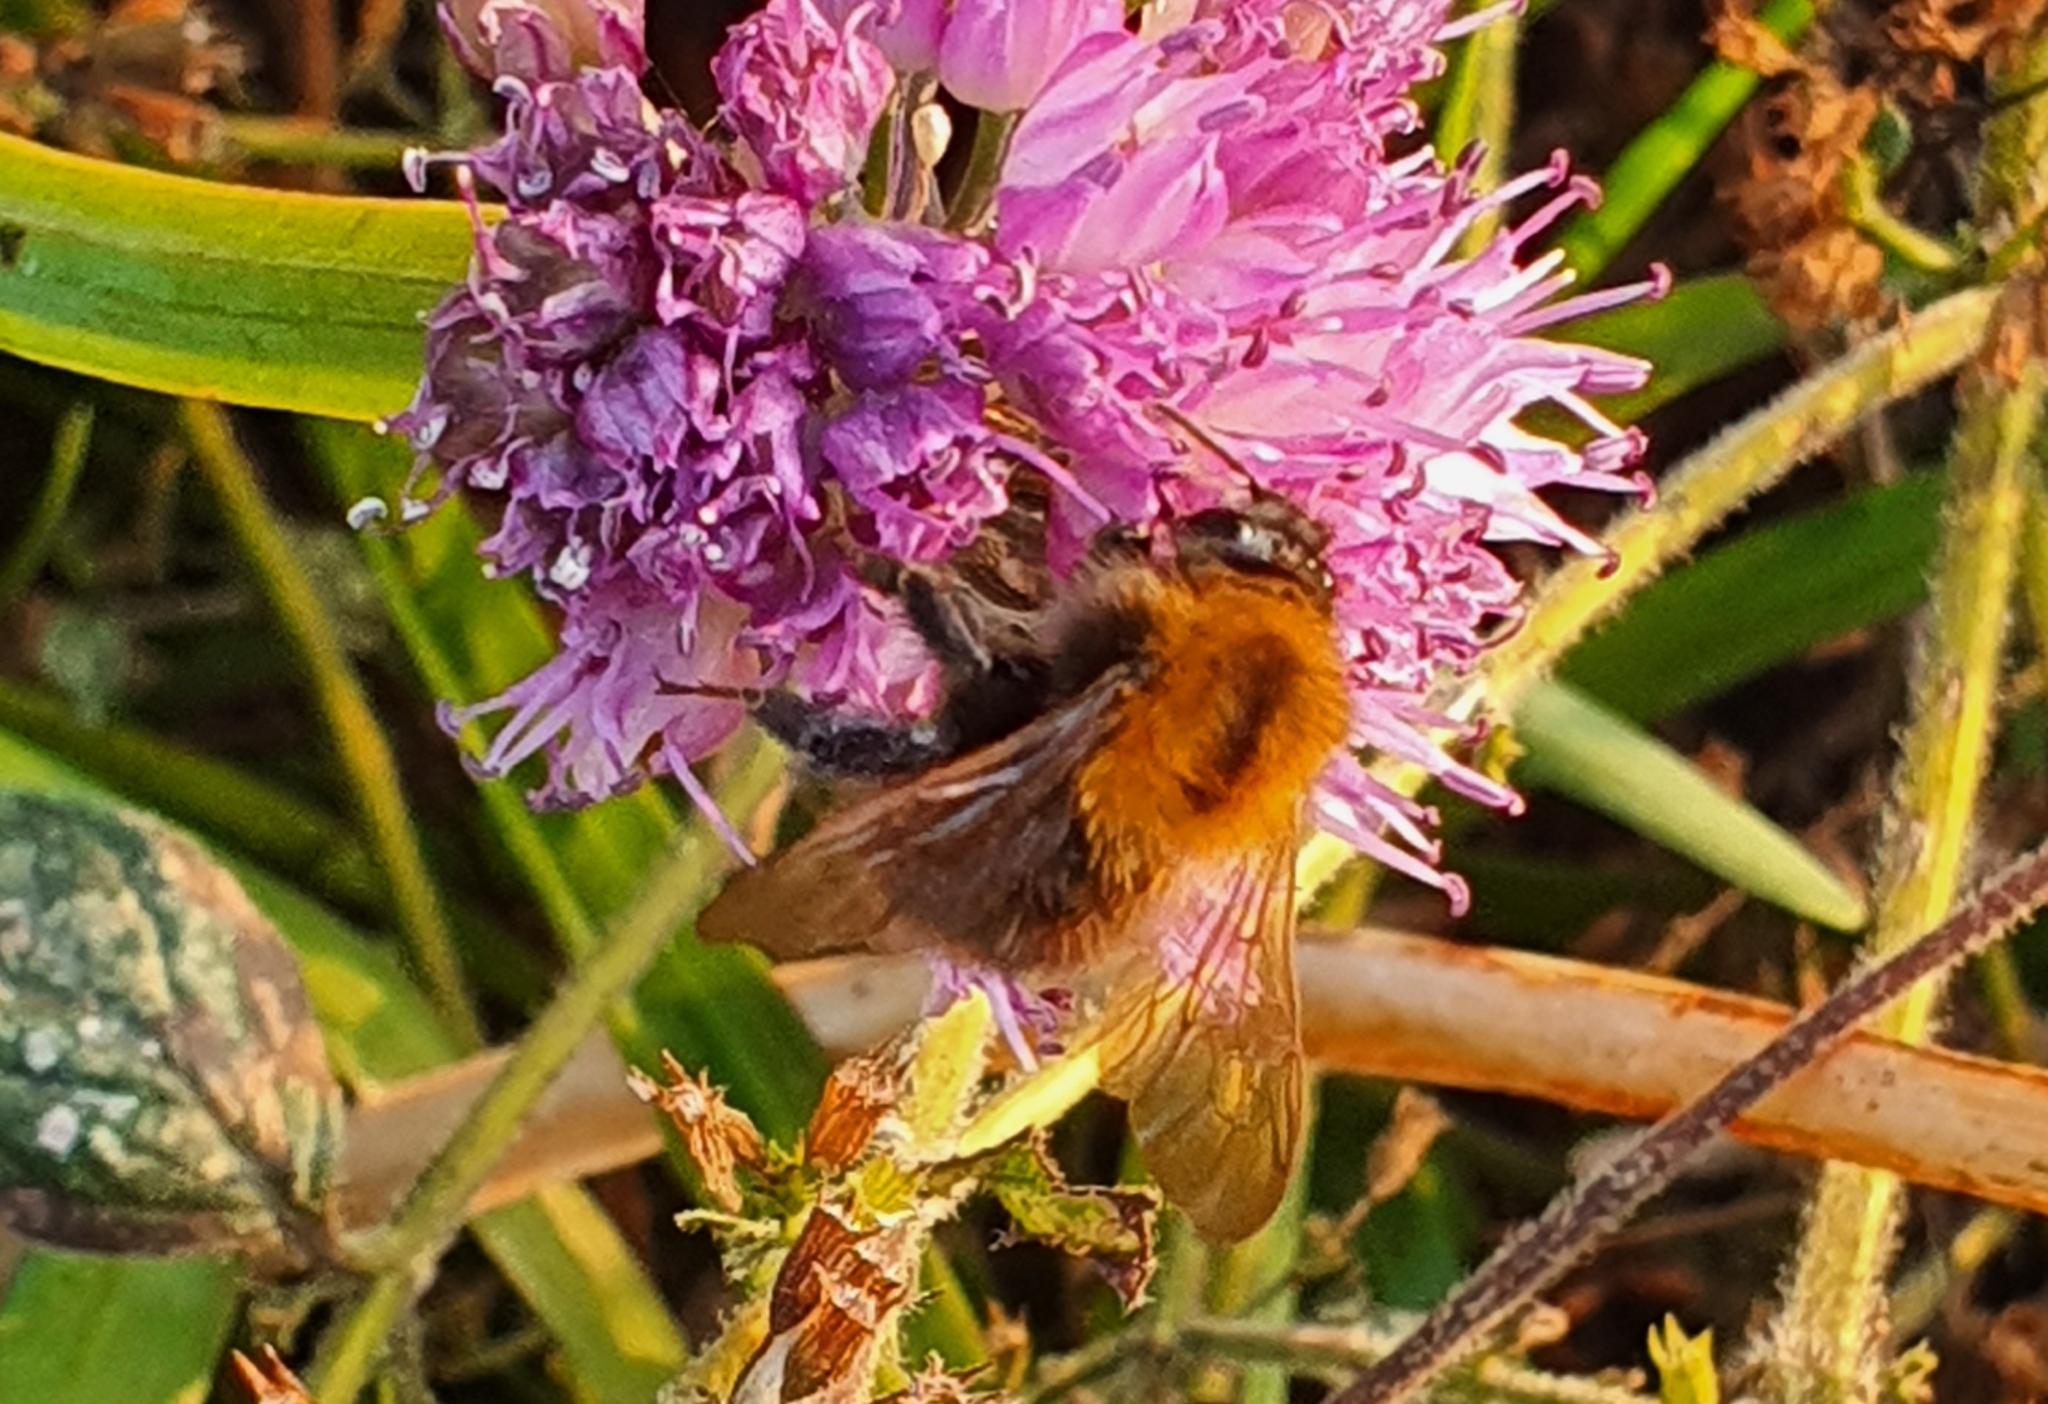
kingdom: Animalia
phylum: Arthropoda
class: Insecta
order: Hymenoptera
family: Apidae
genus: Bombus
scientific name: Bombus pascuorum
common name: Common carder bee
